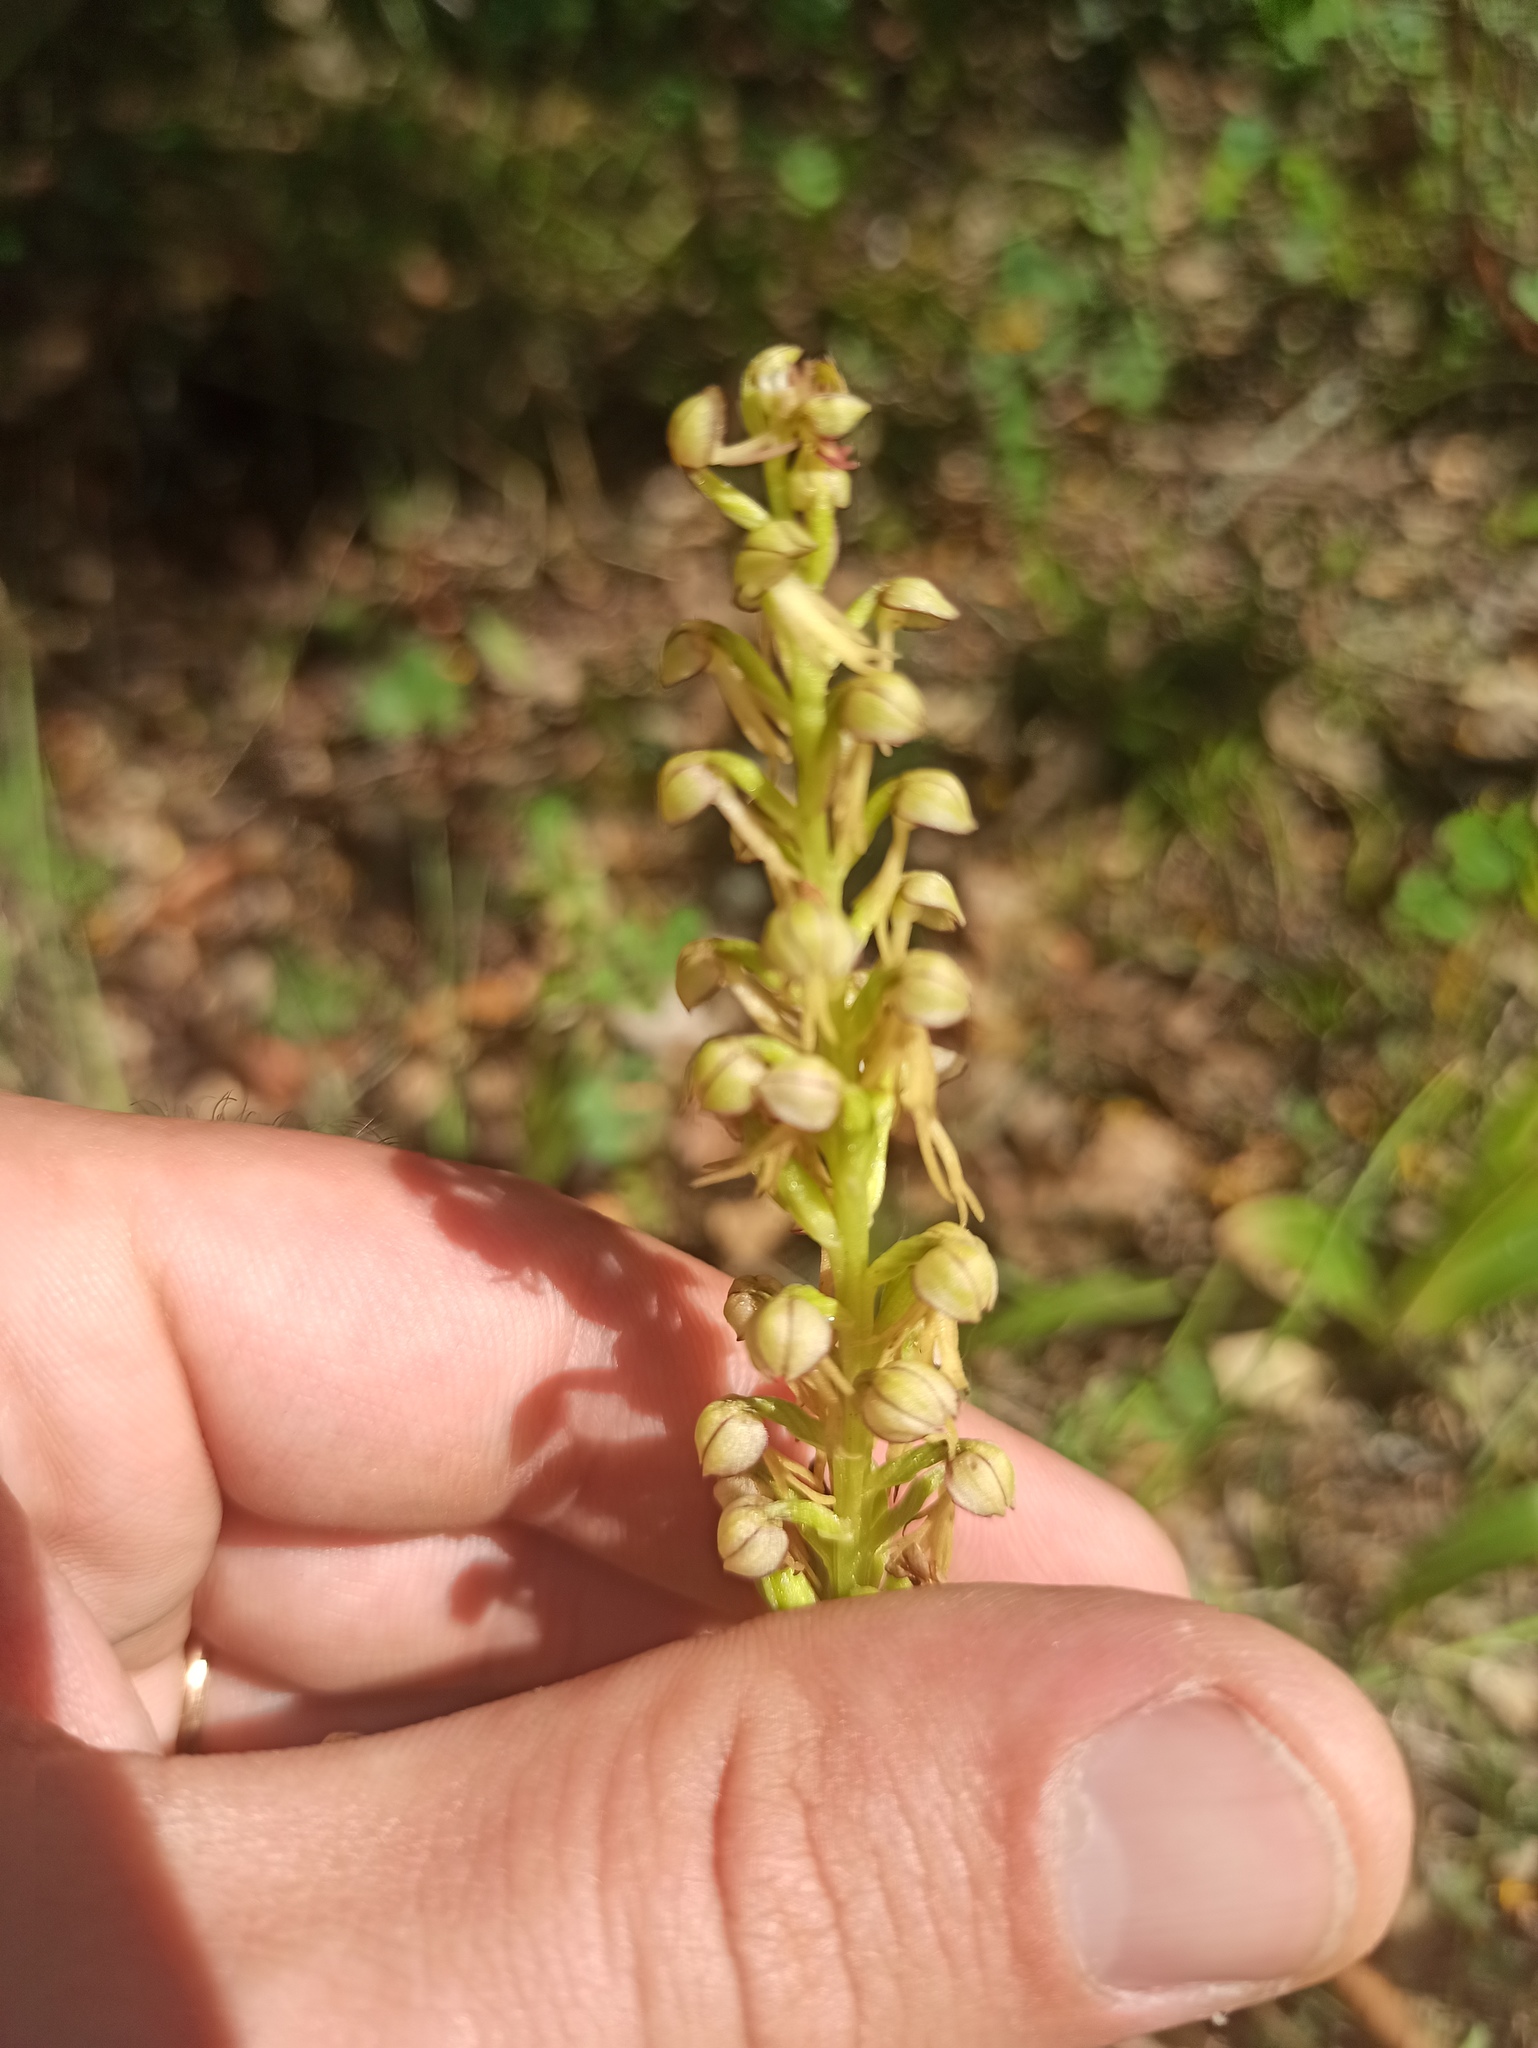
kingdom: Plantae
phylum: Tracheophyta
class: Liliopsida
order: Asparagales
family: Orchidaceae
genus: Orchis
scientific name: Orchis anthropophora
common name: Man orchid
